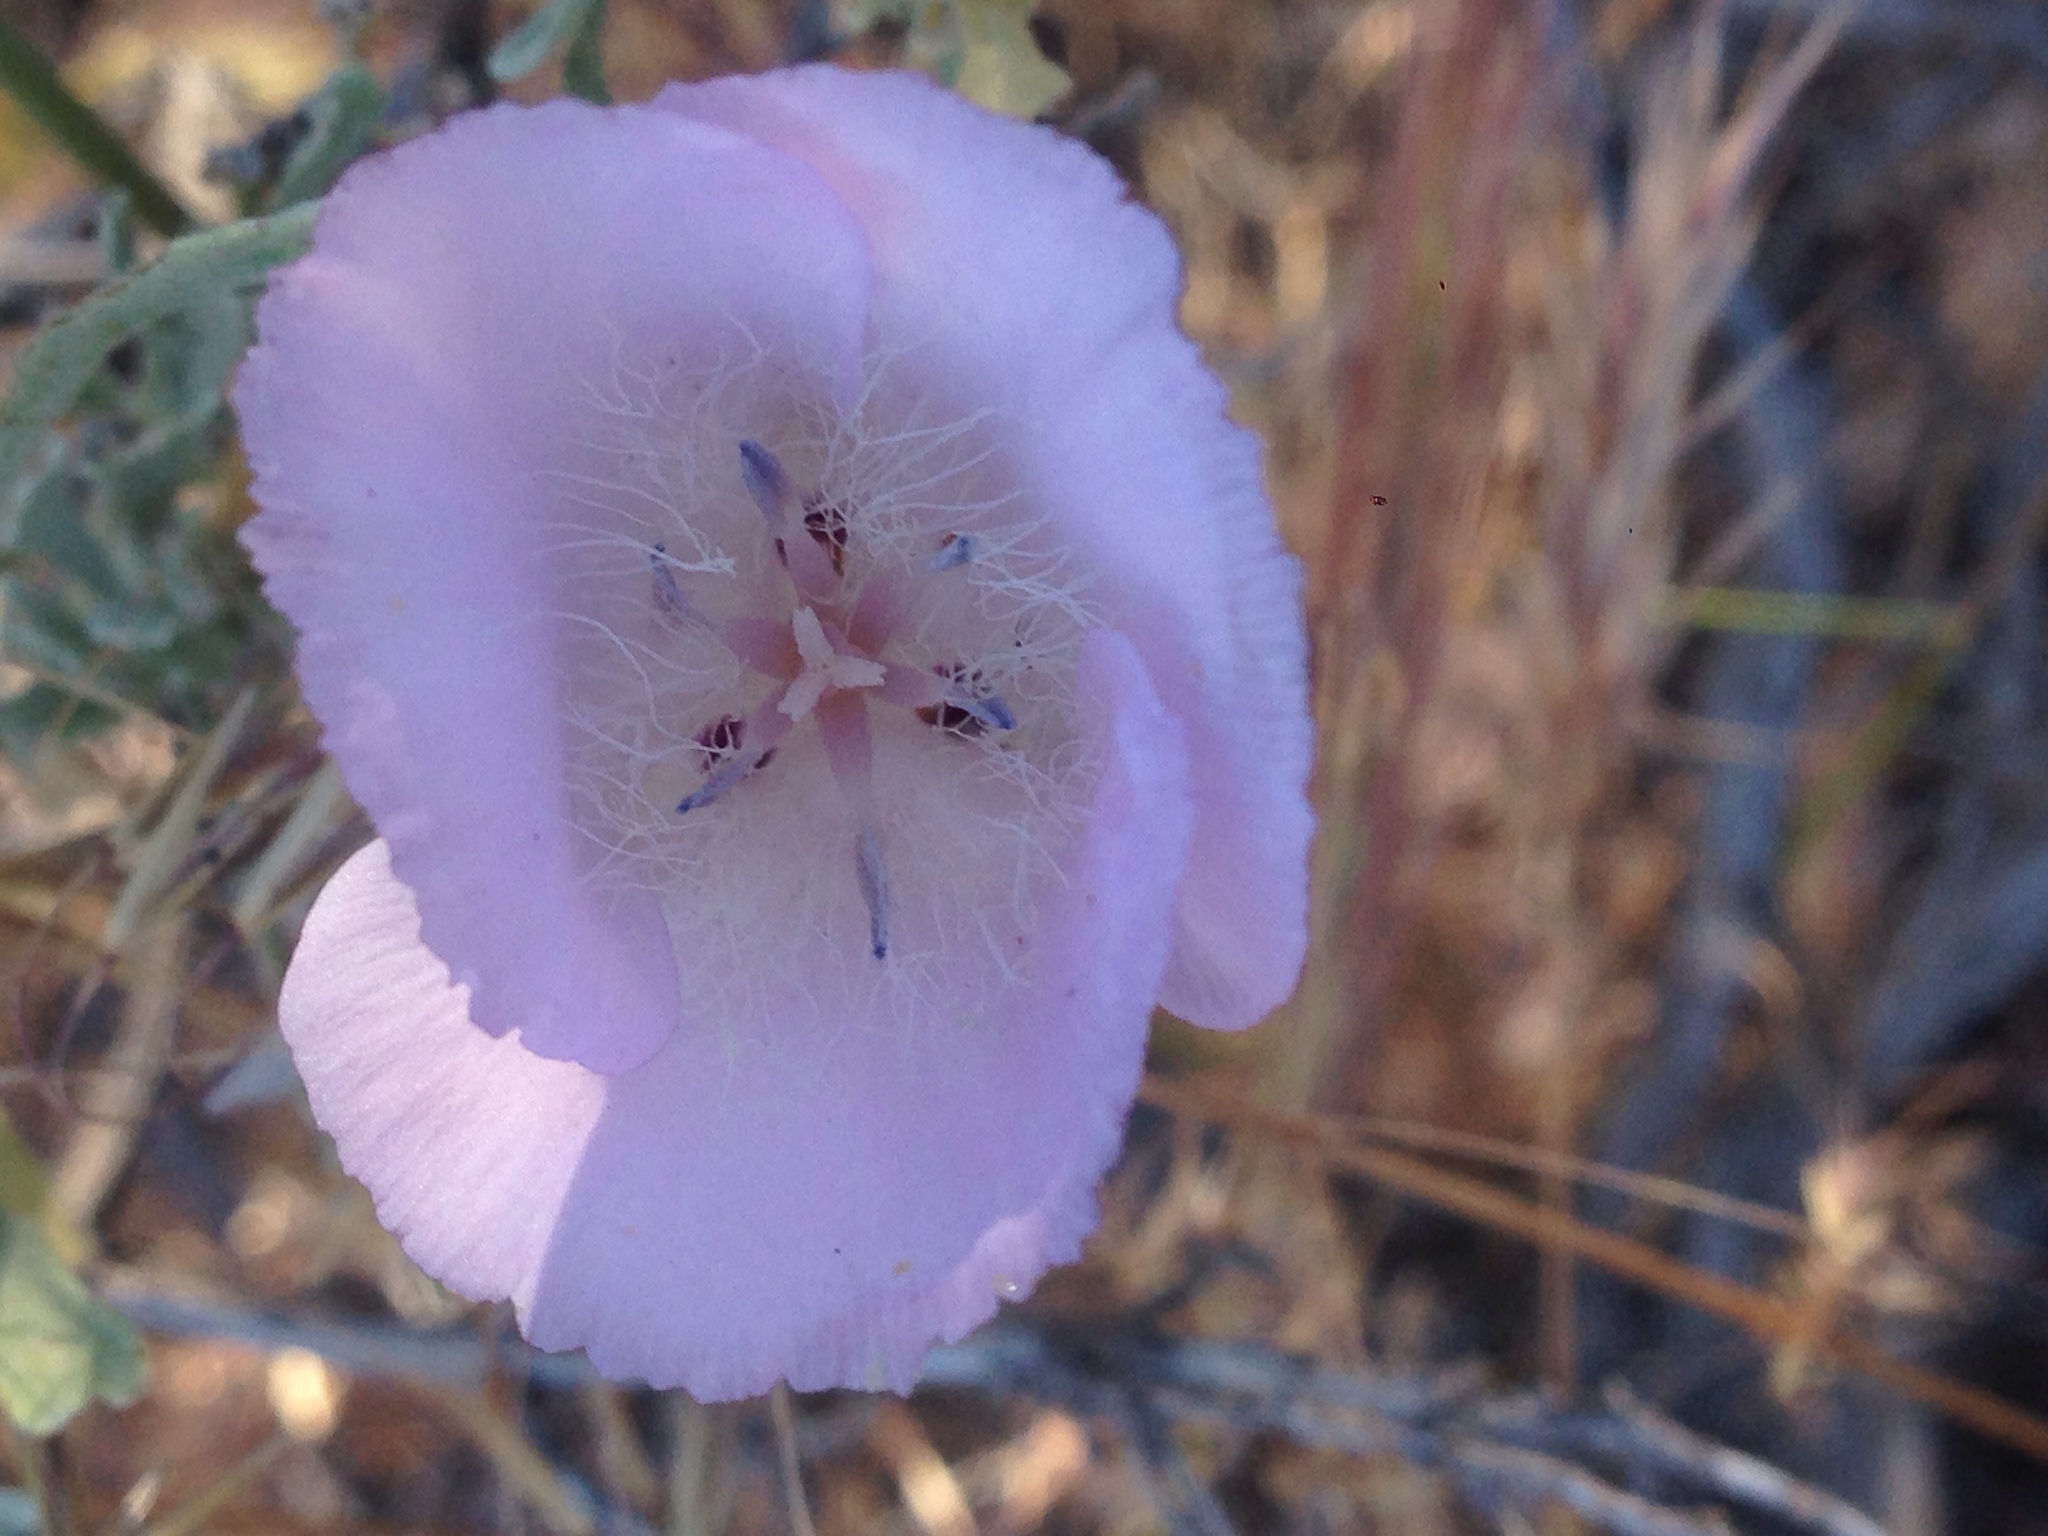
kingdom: Plantae
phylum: Tracheophyta
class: Liliopsida
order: Liliales
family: Liliaceae
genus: Calochortus
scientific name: Calochortus splendens
